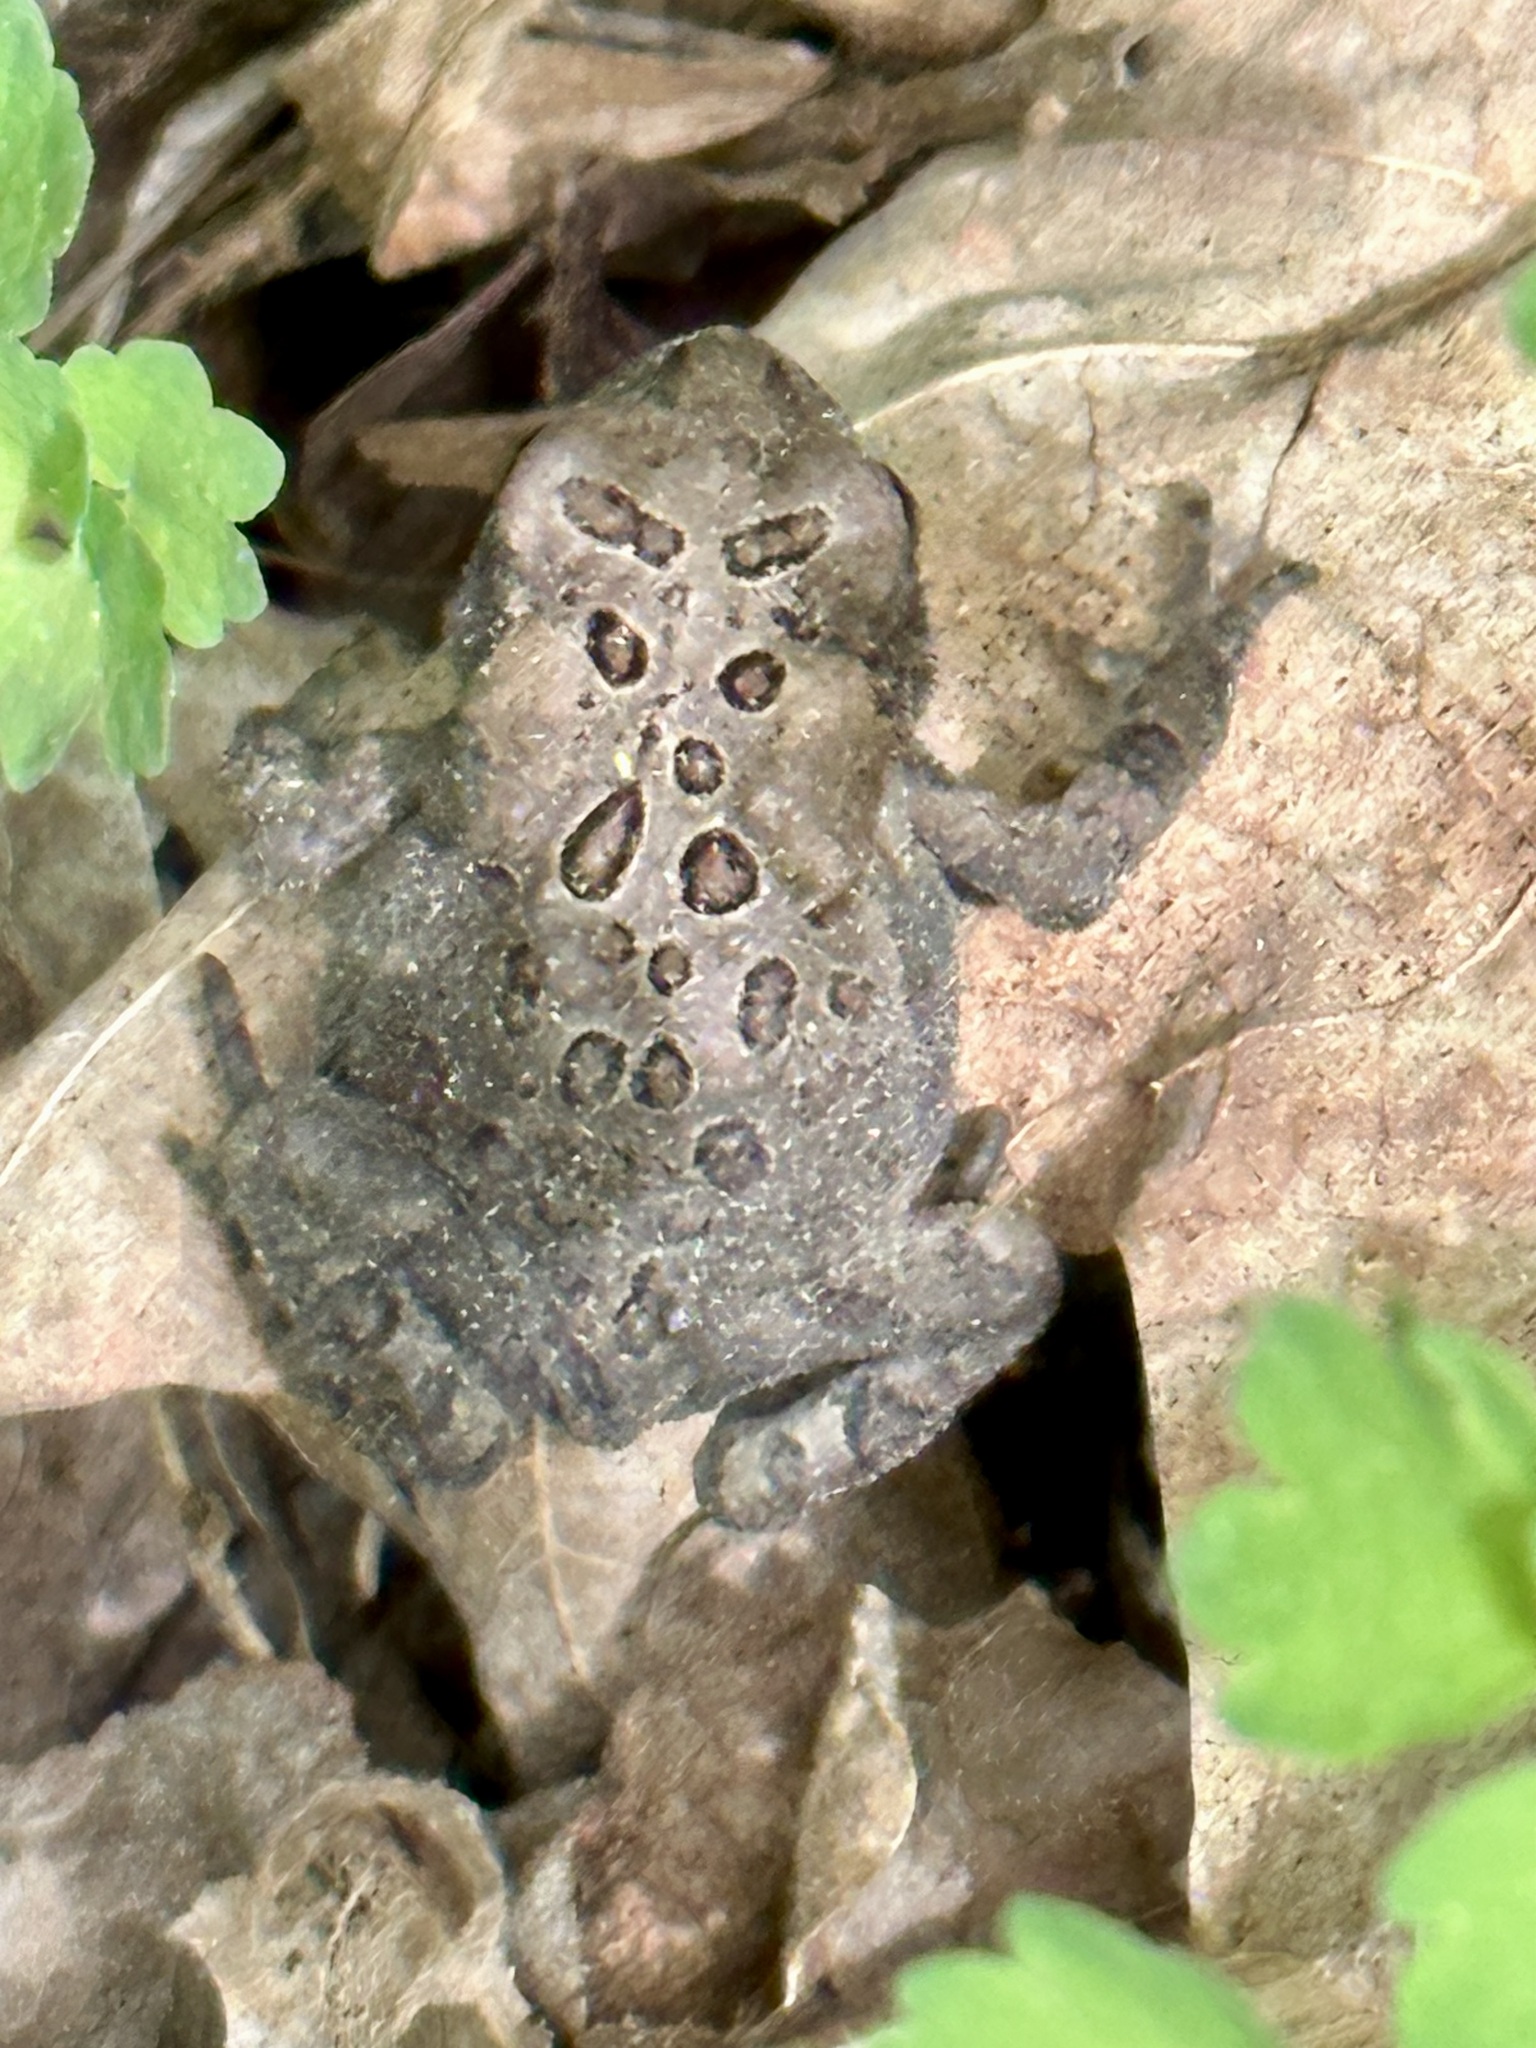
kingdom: Animalia
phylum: Chordata
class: Amphibia
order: Anura
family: Bufonidae
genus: Anaxyrus
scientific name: Anaxyrus americanus
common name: American toad
